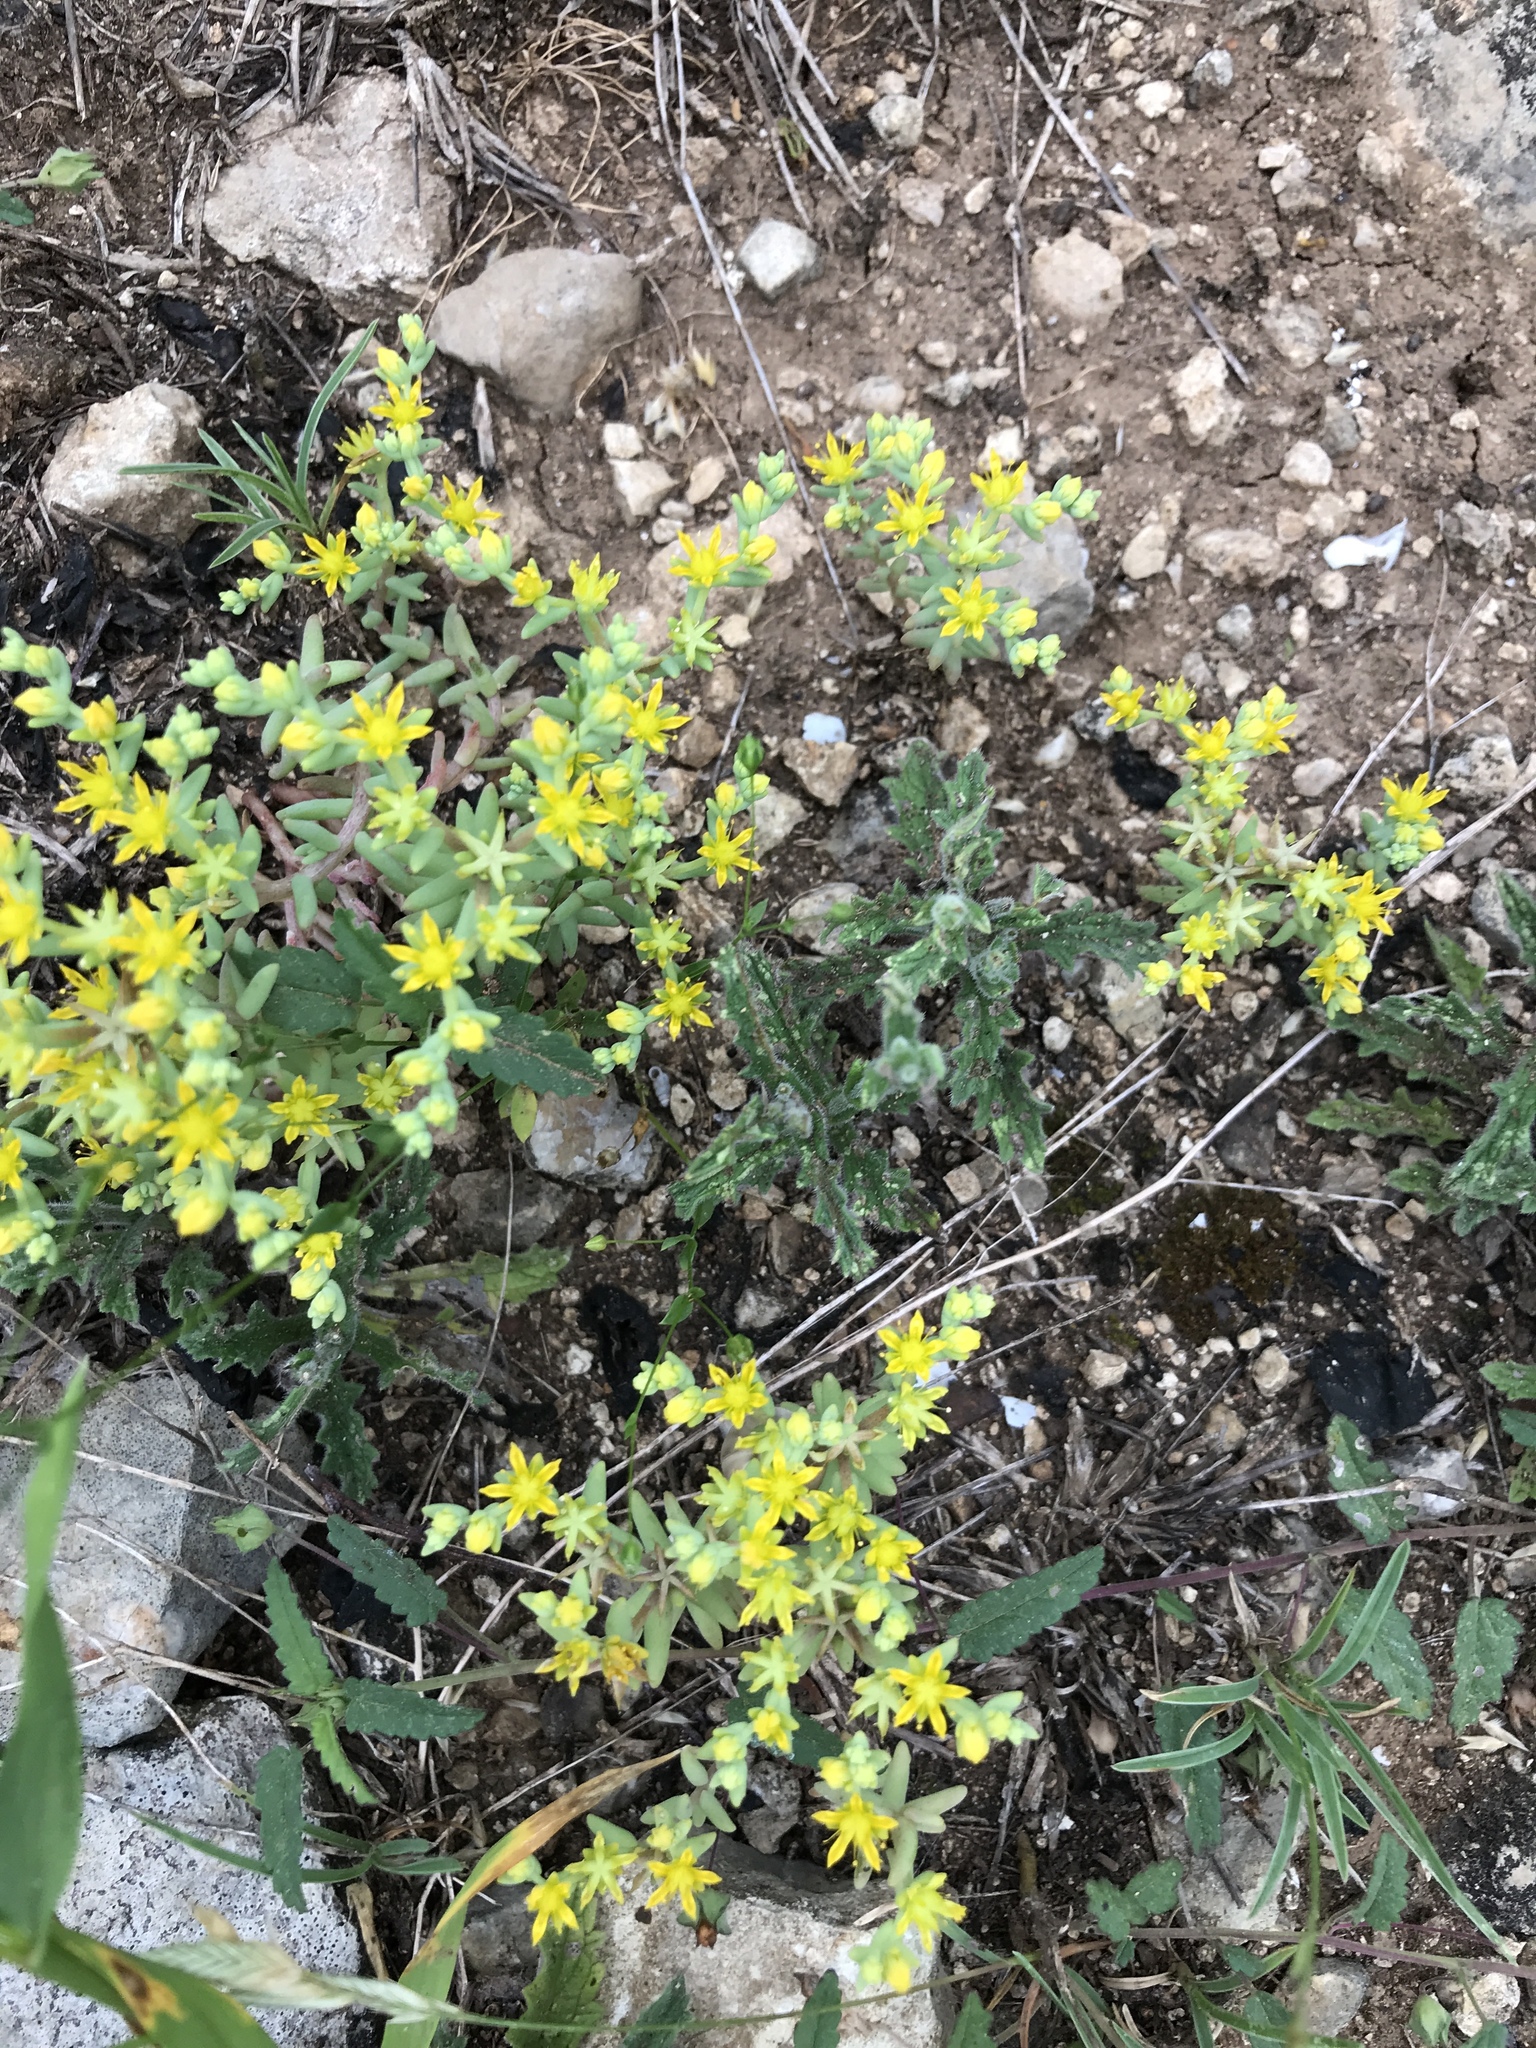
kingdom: Plantae
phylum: Tracheophyta
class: Magnoliopsida
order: Saxifragales
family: Crassulaceae
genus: Sedum
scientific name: Sedum nuttallii
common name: Yellow stonecrop
